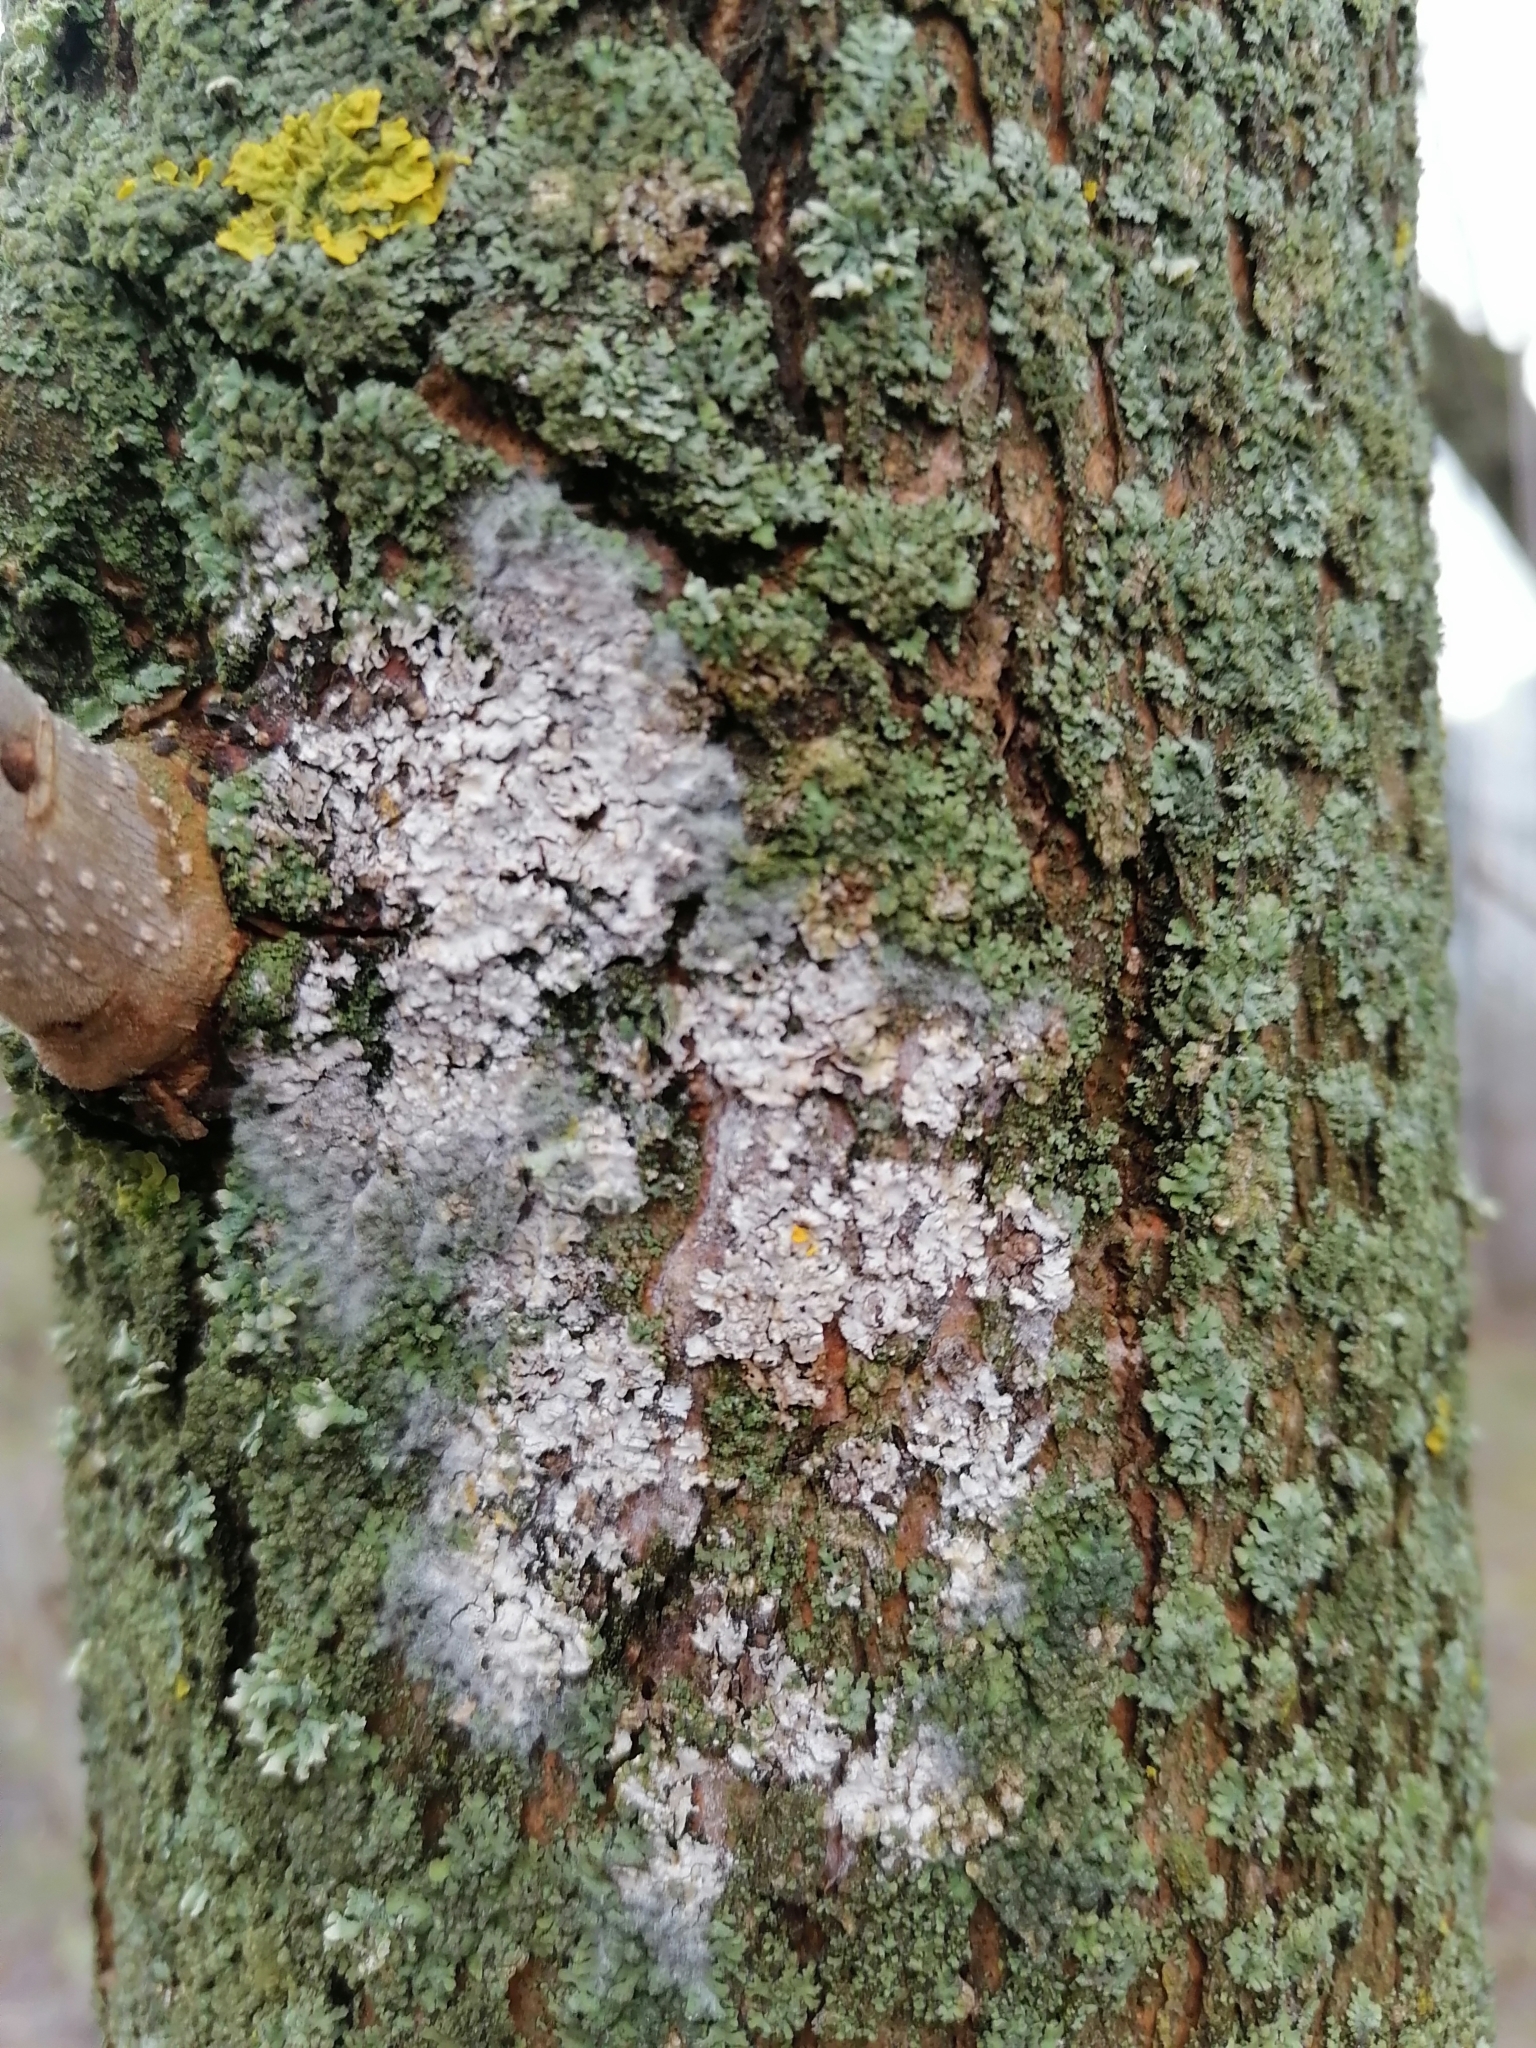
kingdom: Fungi
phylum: Basidiomycota
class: Agaricomycetes
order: Atheliales
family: Atheliaceae
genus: Athelia
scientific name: Athelia arachnoidea
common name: Candelabra duster
